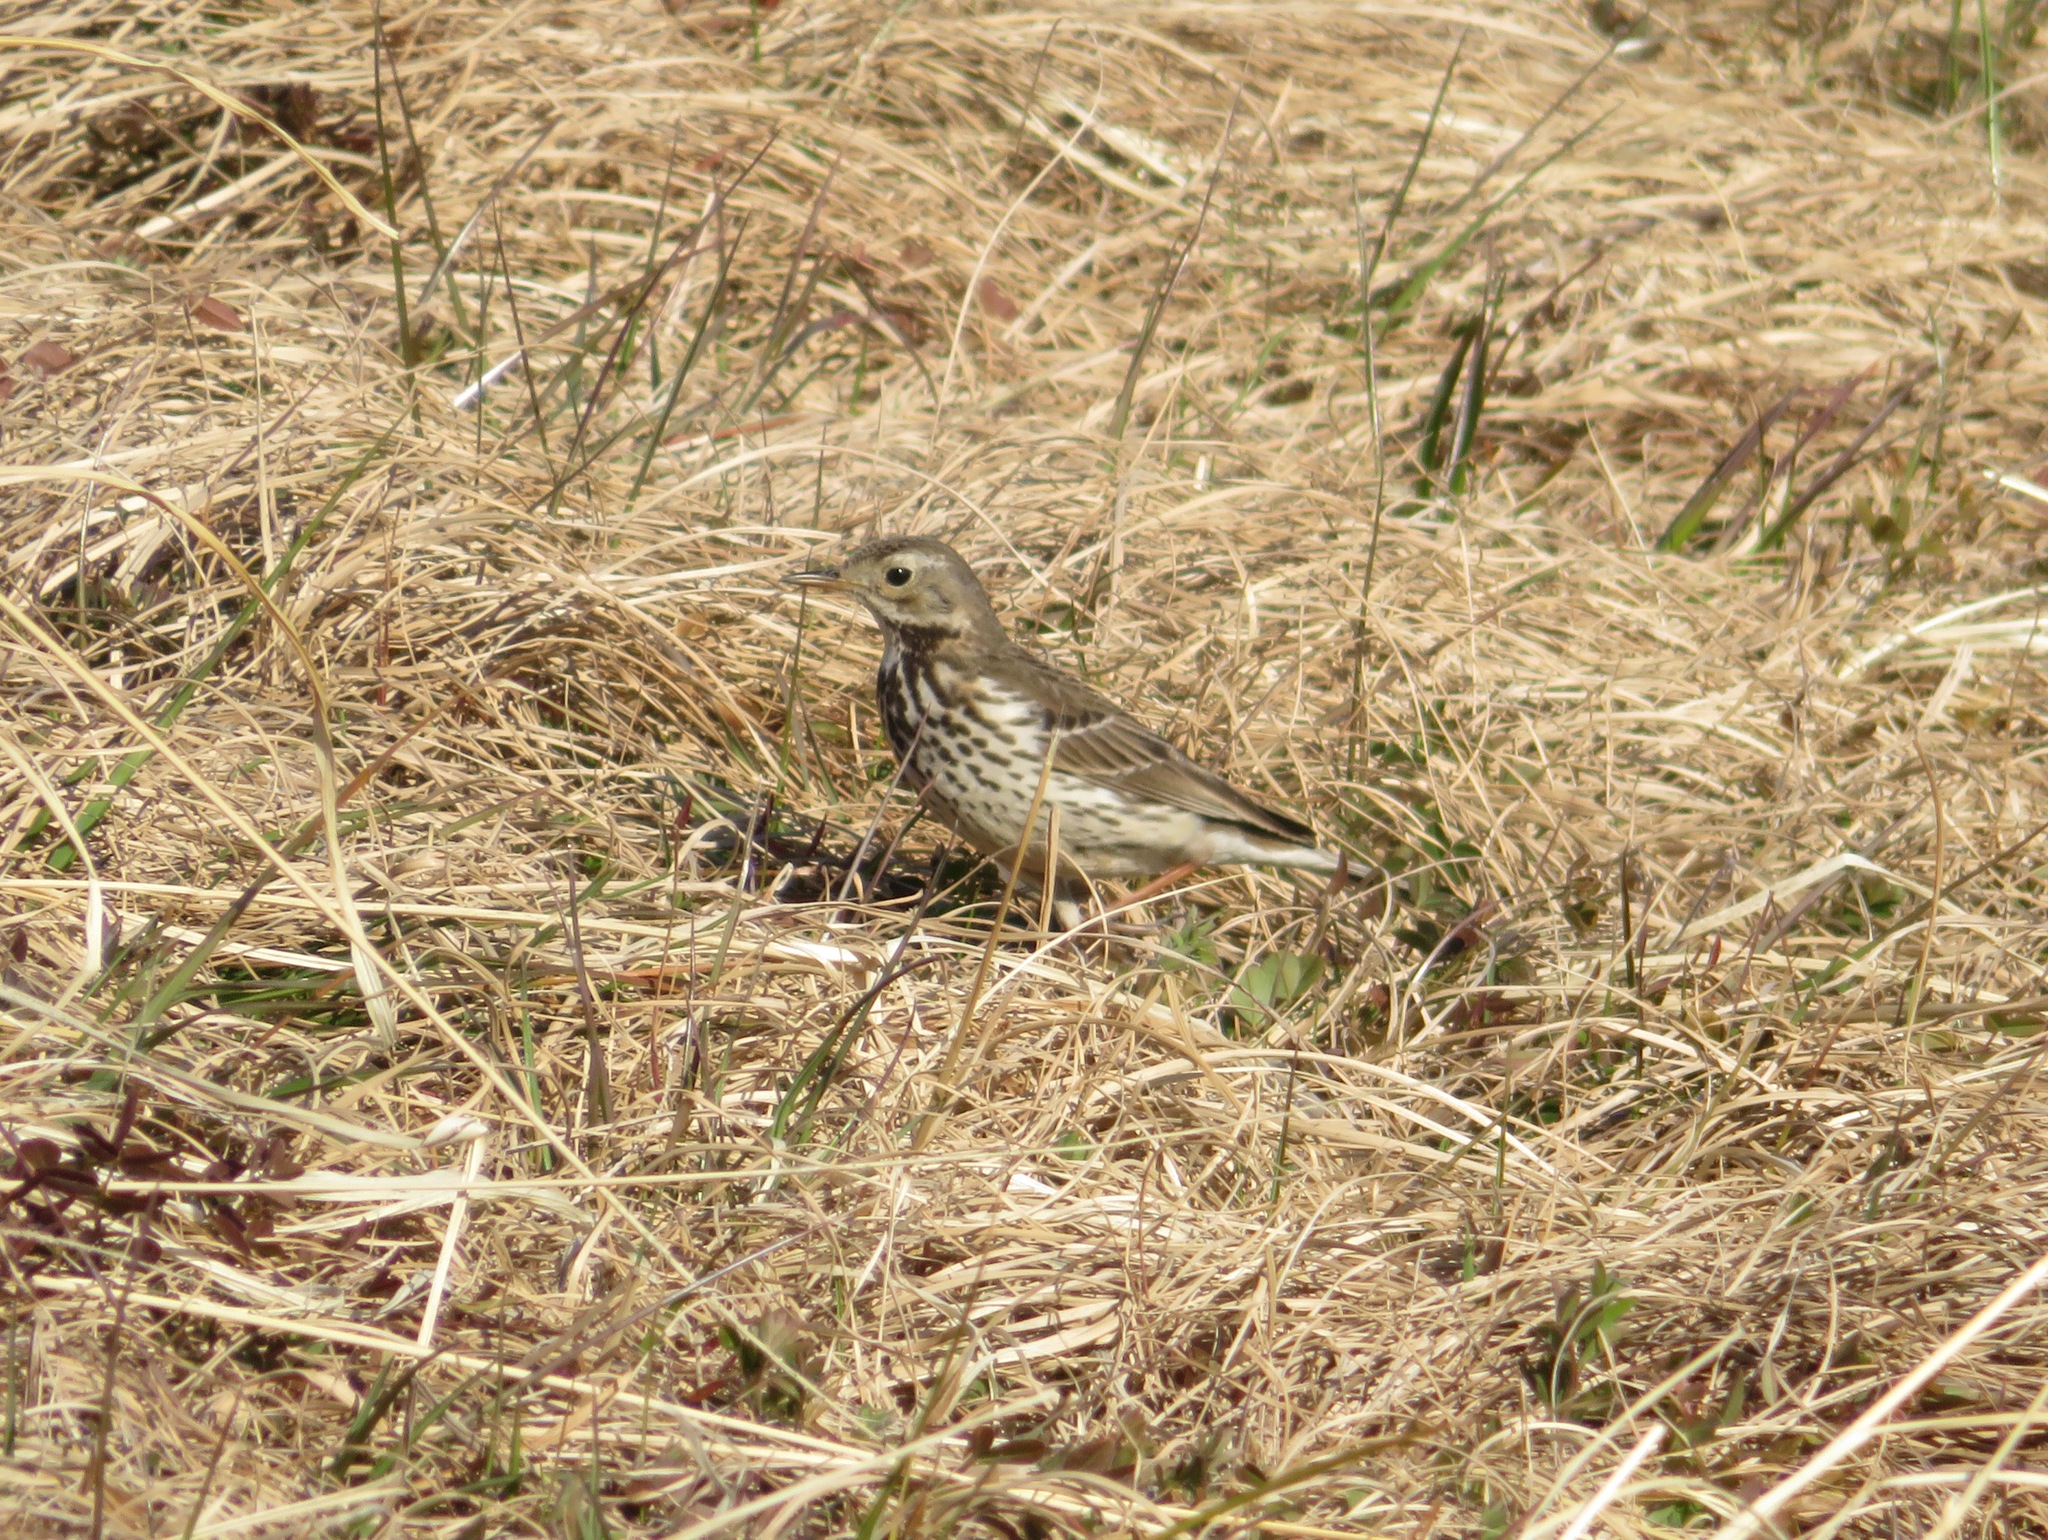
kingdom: Animalia
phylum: Chordata
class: Aves
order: Passeriformes
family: Motacillidae
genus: Anthus
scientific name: Anthus rubescens
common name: Buff-bellied pipit
